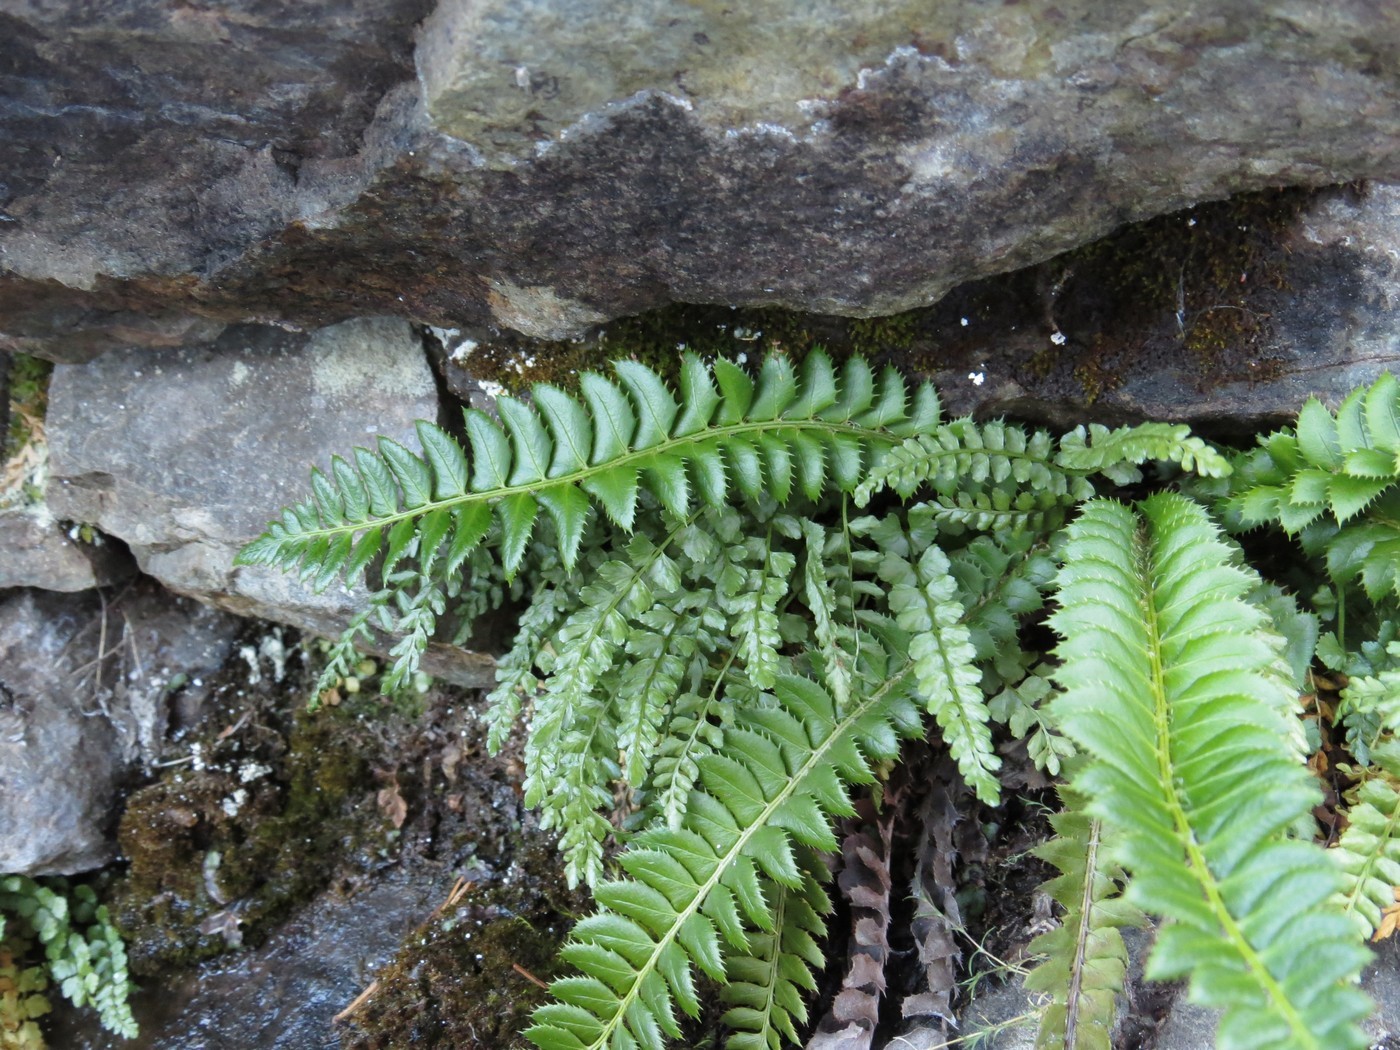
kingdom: Plantae
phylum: Tracheophyta
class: Polypodiopsida
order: Polypodiales
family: Dryopteridaceae
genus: Polystichum
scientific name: Polystichum lonchitis
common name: Holly fern
